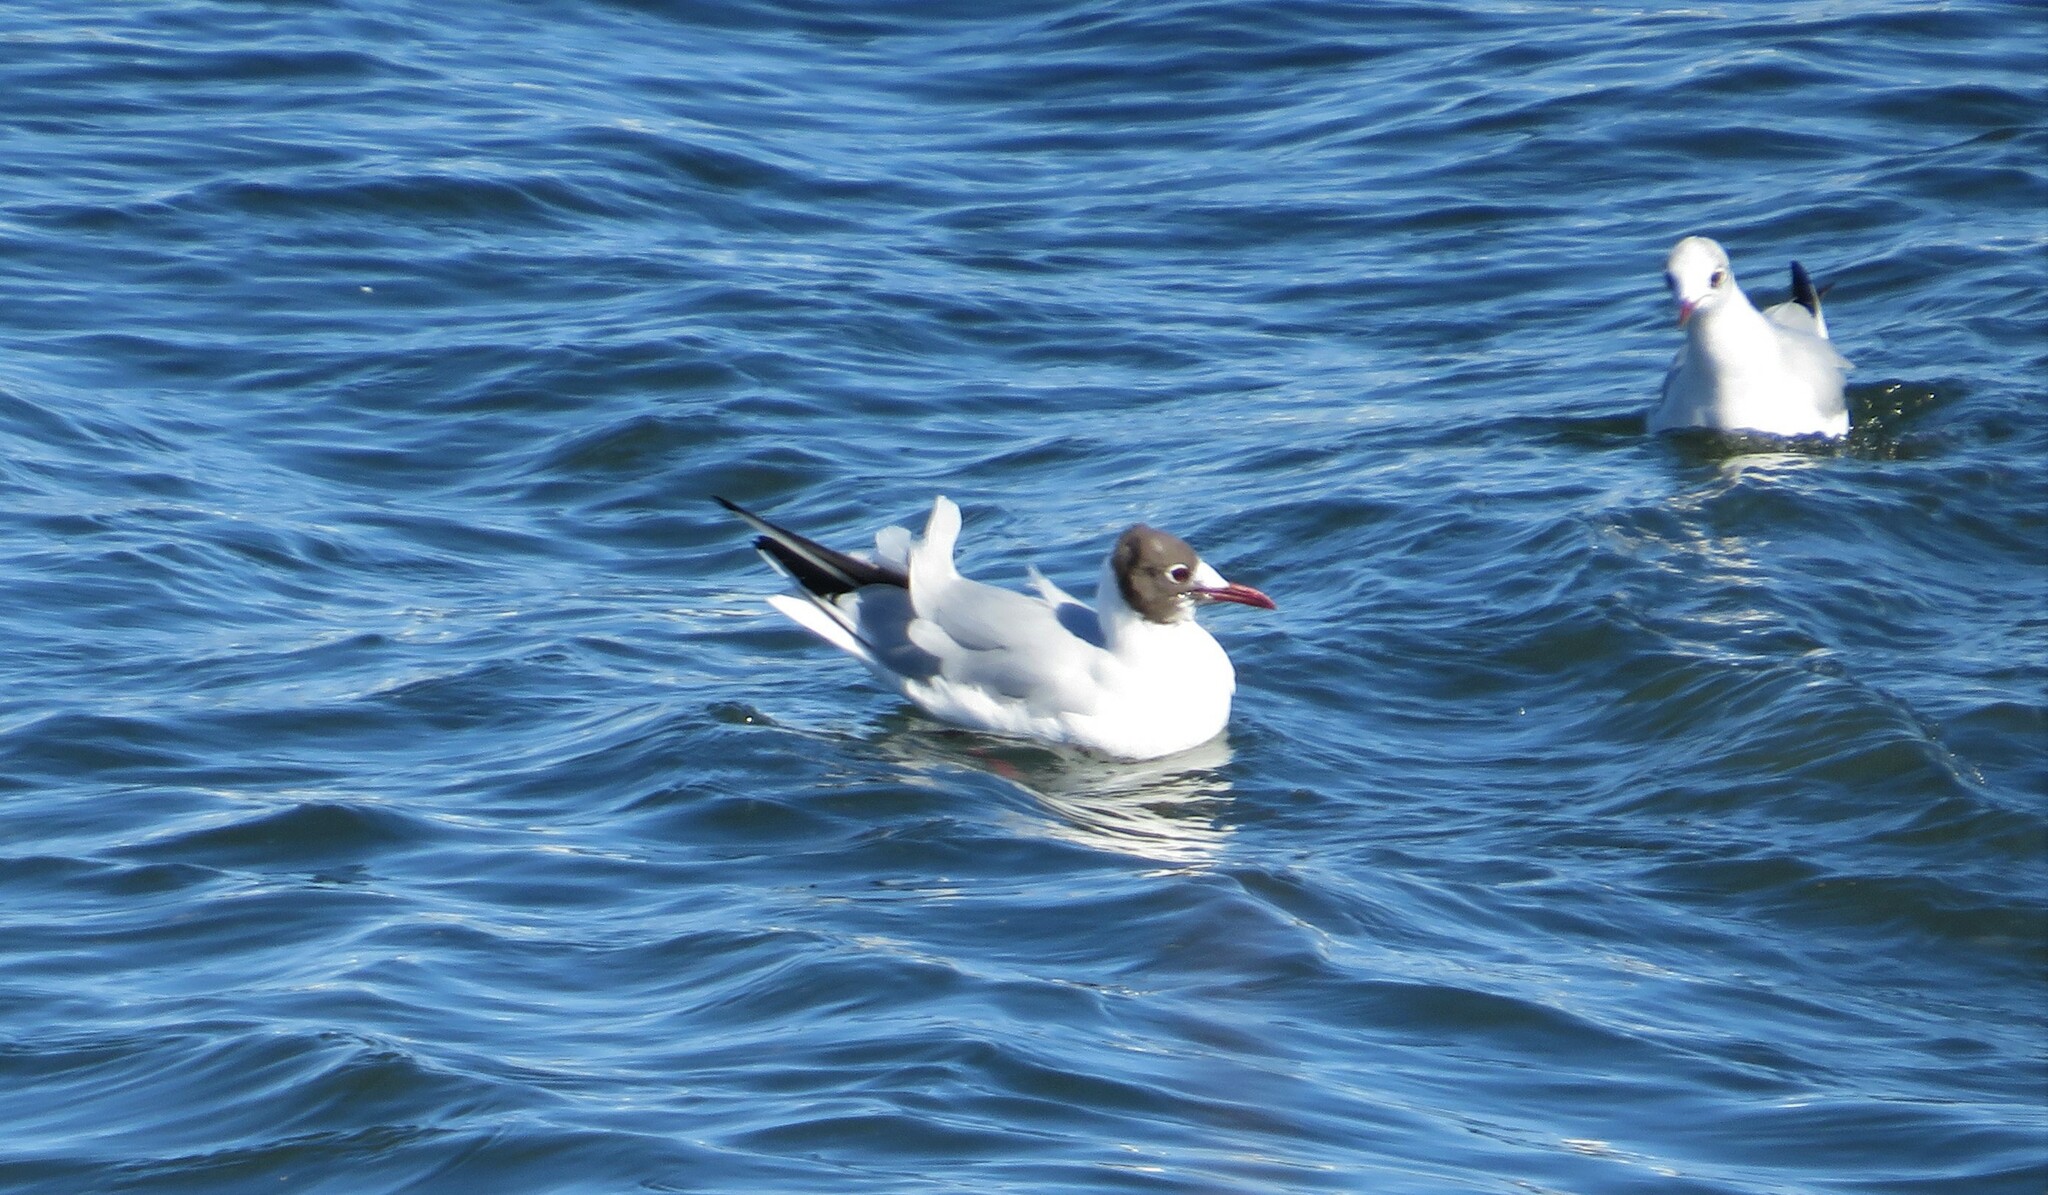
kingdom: Animalia
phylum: Chordata
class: Aves
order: Charadriiformes
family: Laridae
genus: Chroicocephalus
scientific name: Chroicocephalus ridibundus
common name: Black-headed gull
